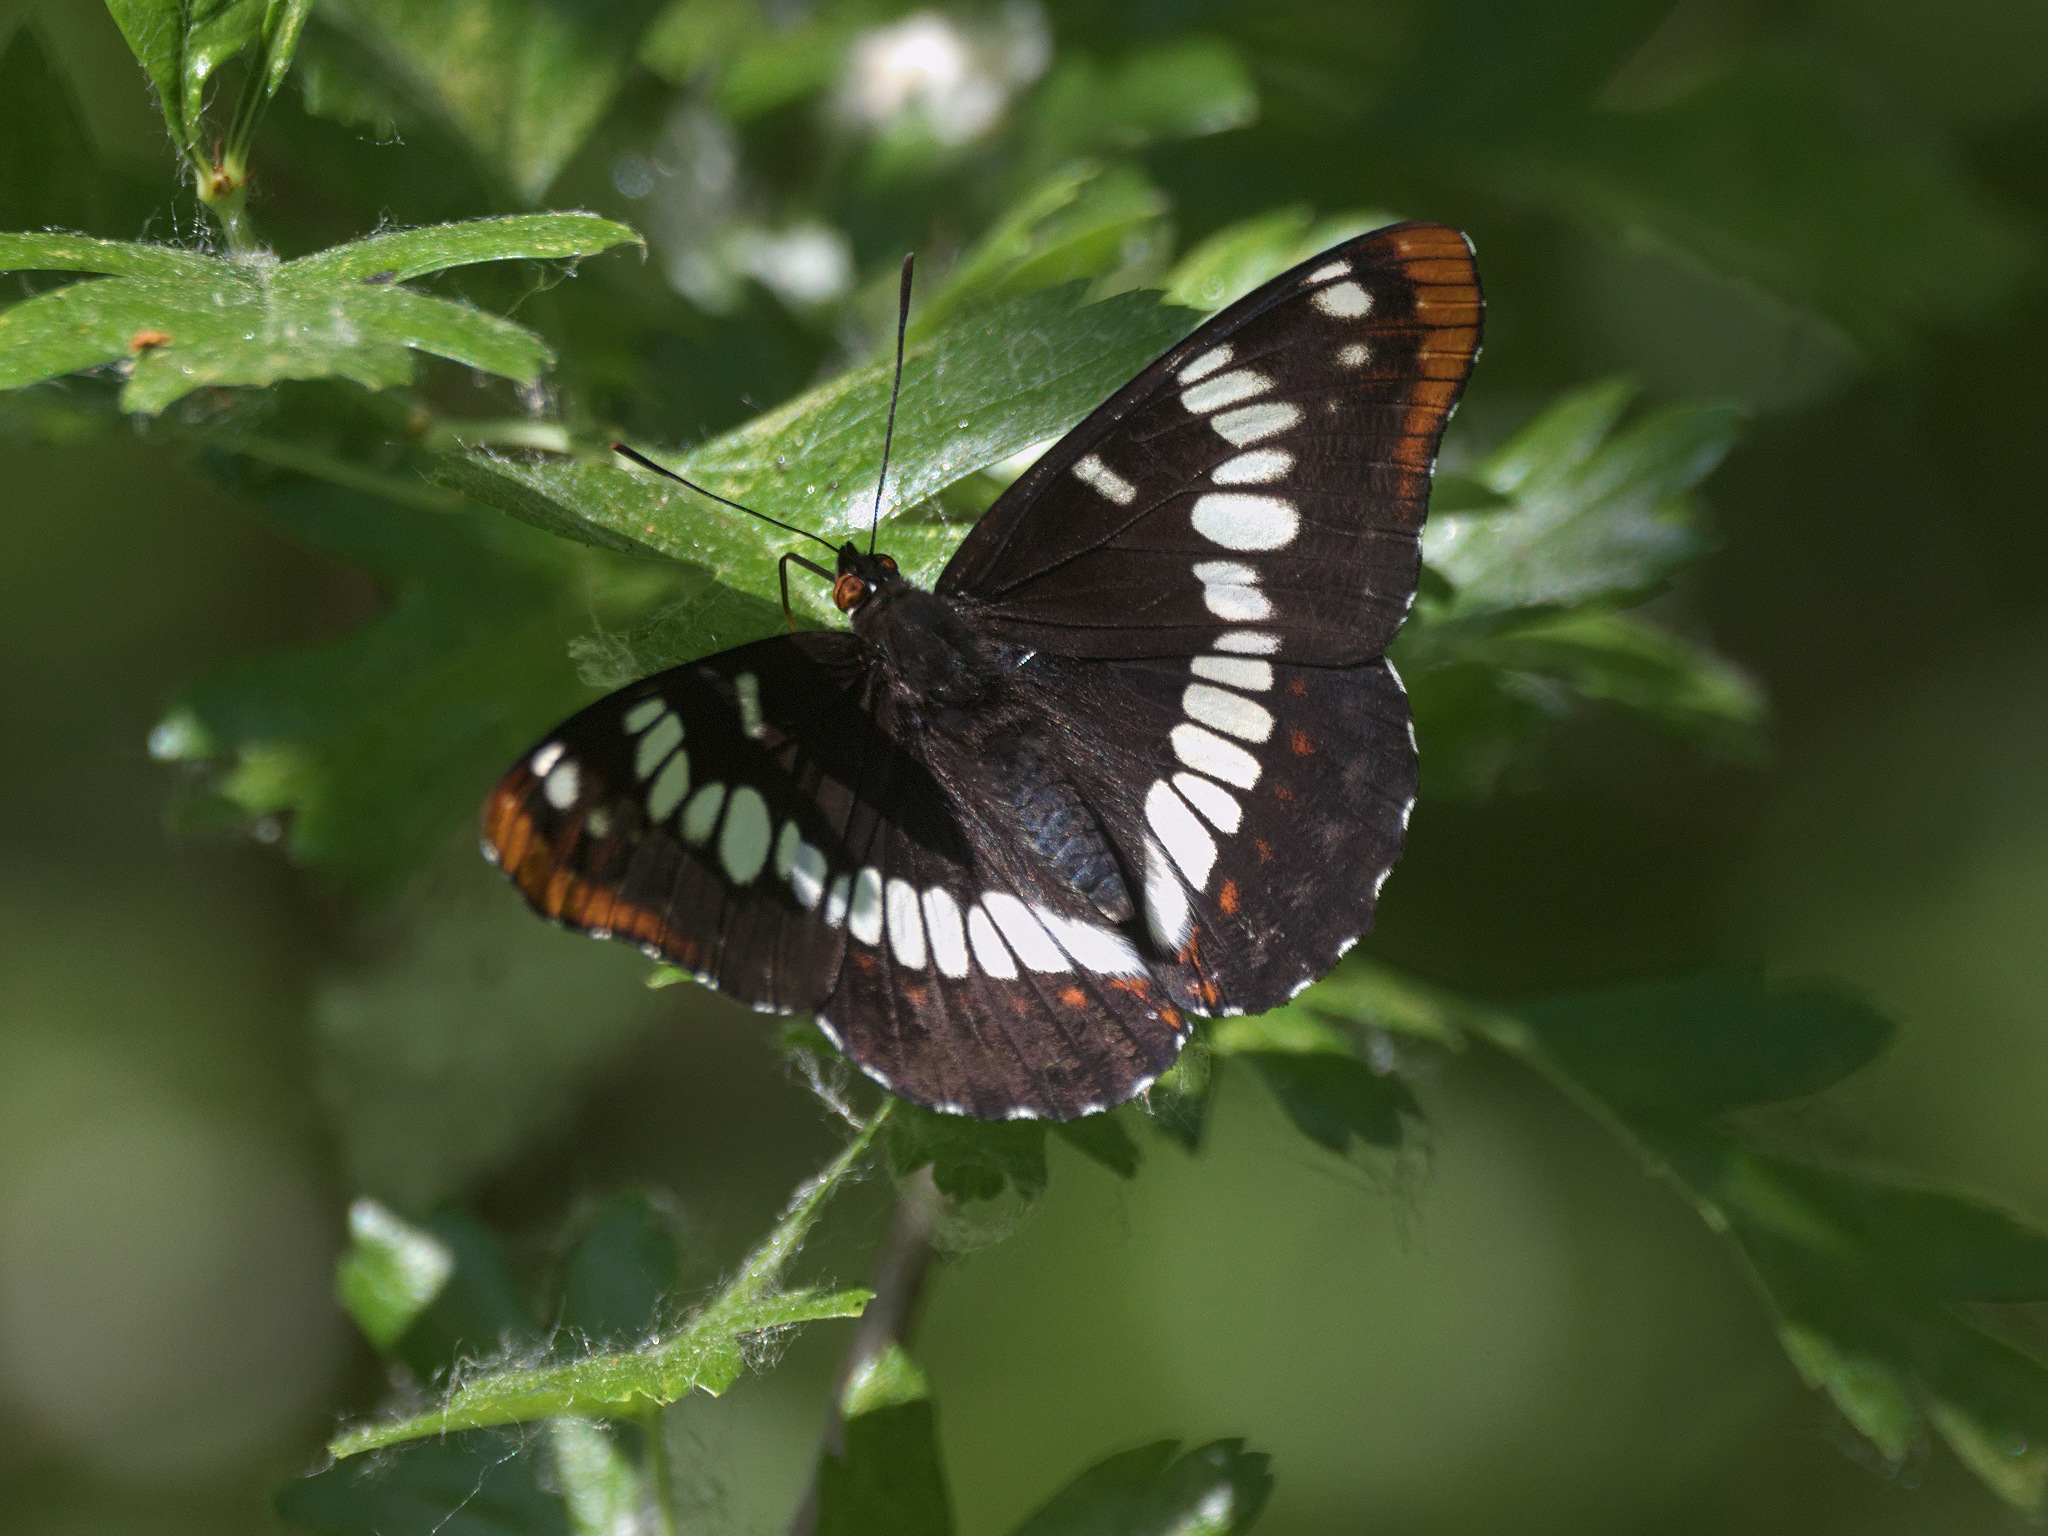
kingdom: Animalia
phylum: Arthropoda
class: Insecta
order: Lepidoptera
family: Nymphalidae
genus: Limenitis
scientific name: Limenitis lorquini
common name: Lorquin's admiral
